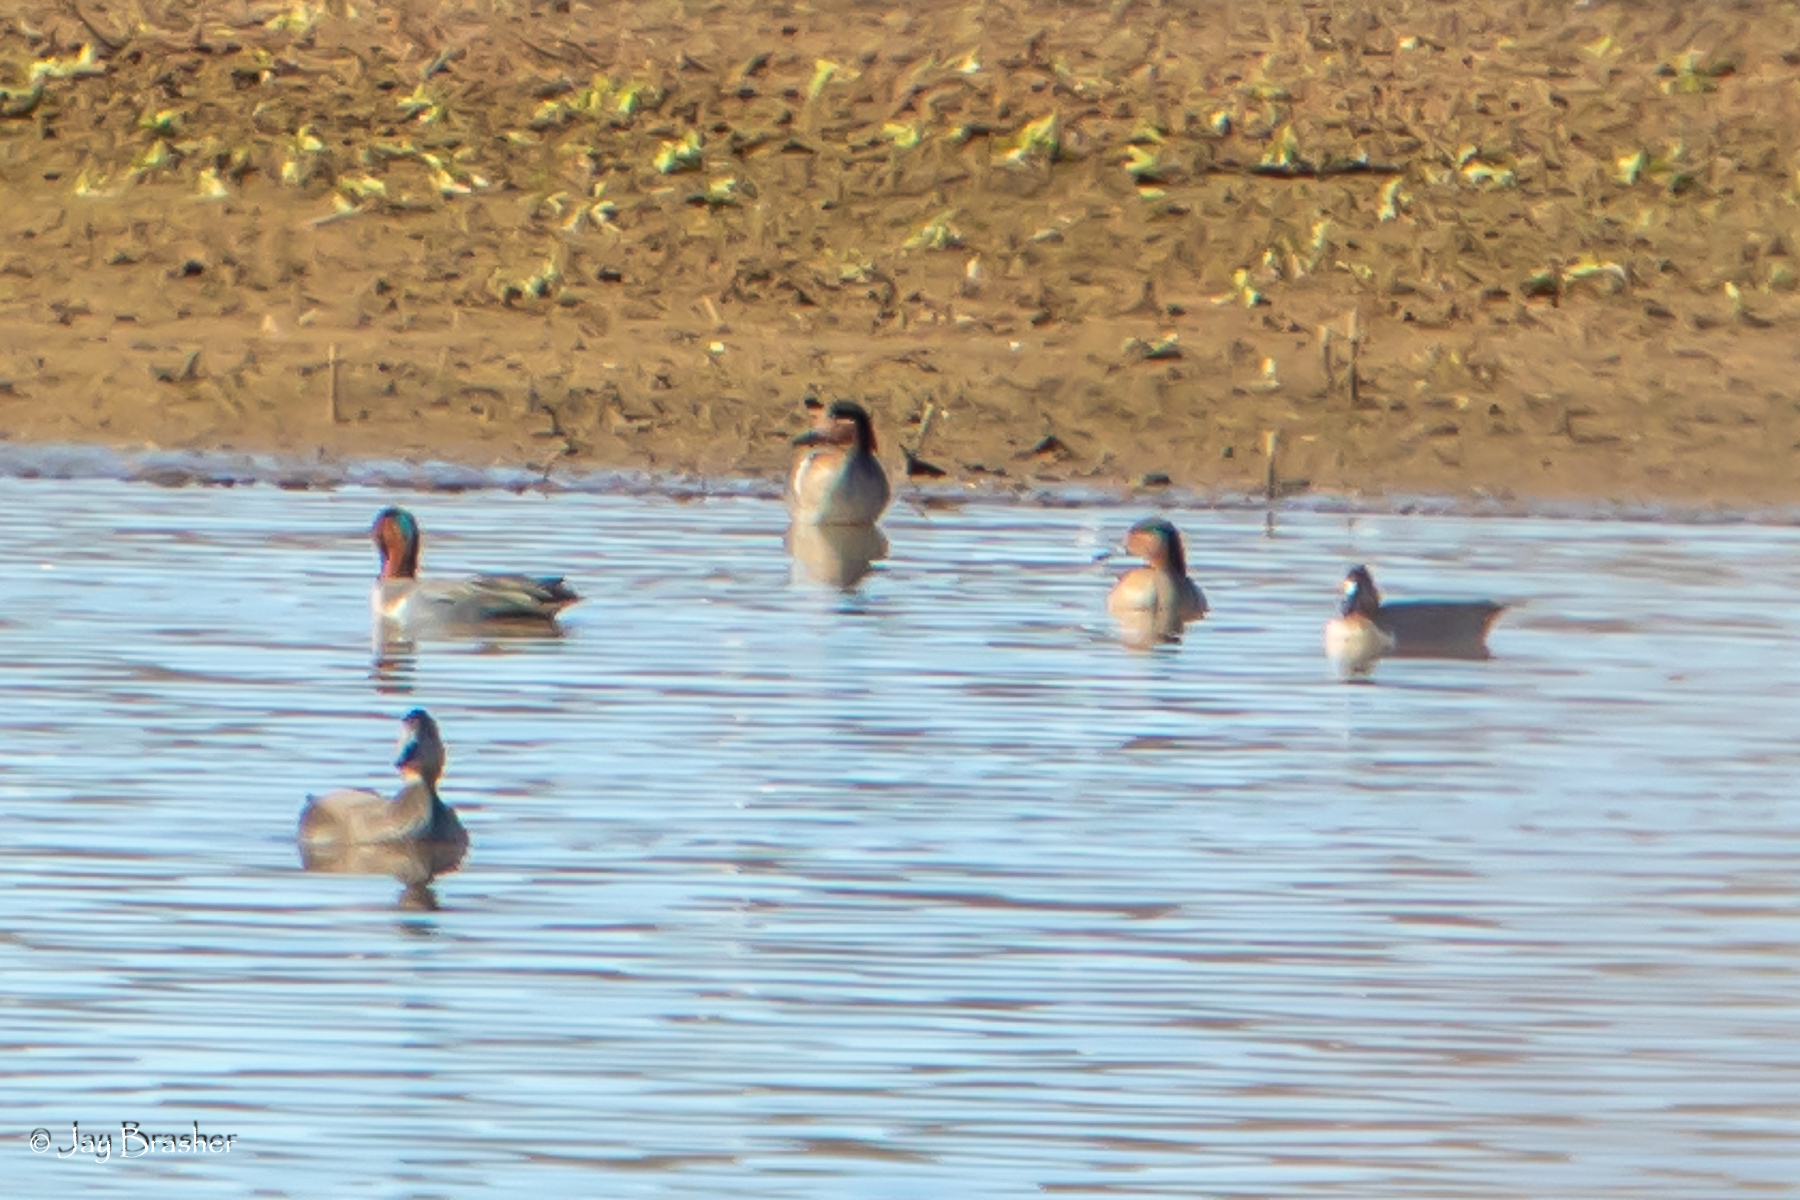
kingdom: Animalia
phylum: Chordata
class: Aves
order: Anseriformes
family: Anatidae
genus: Anas
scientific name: Anas crecca
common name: Eurasian teal
